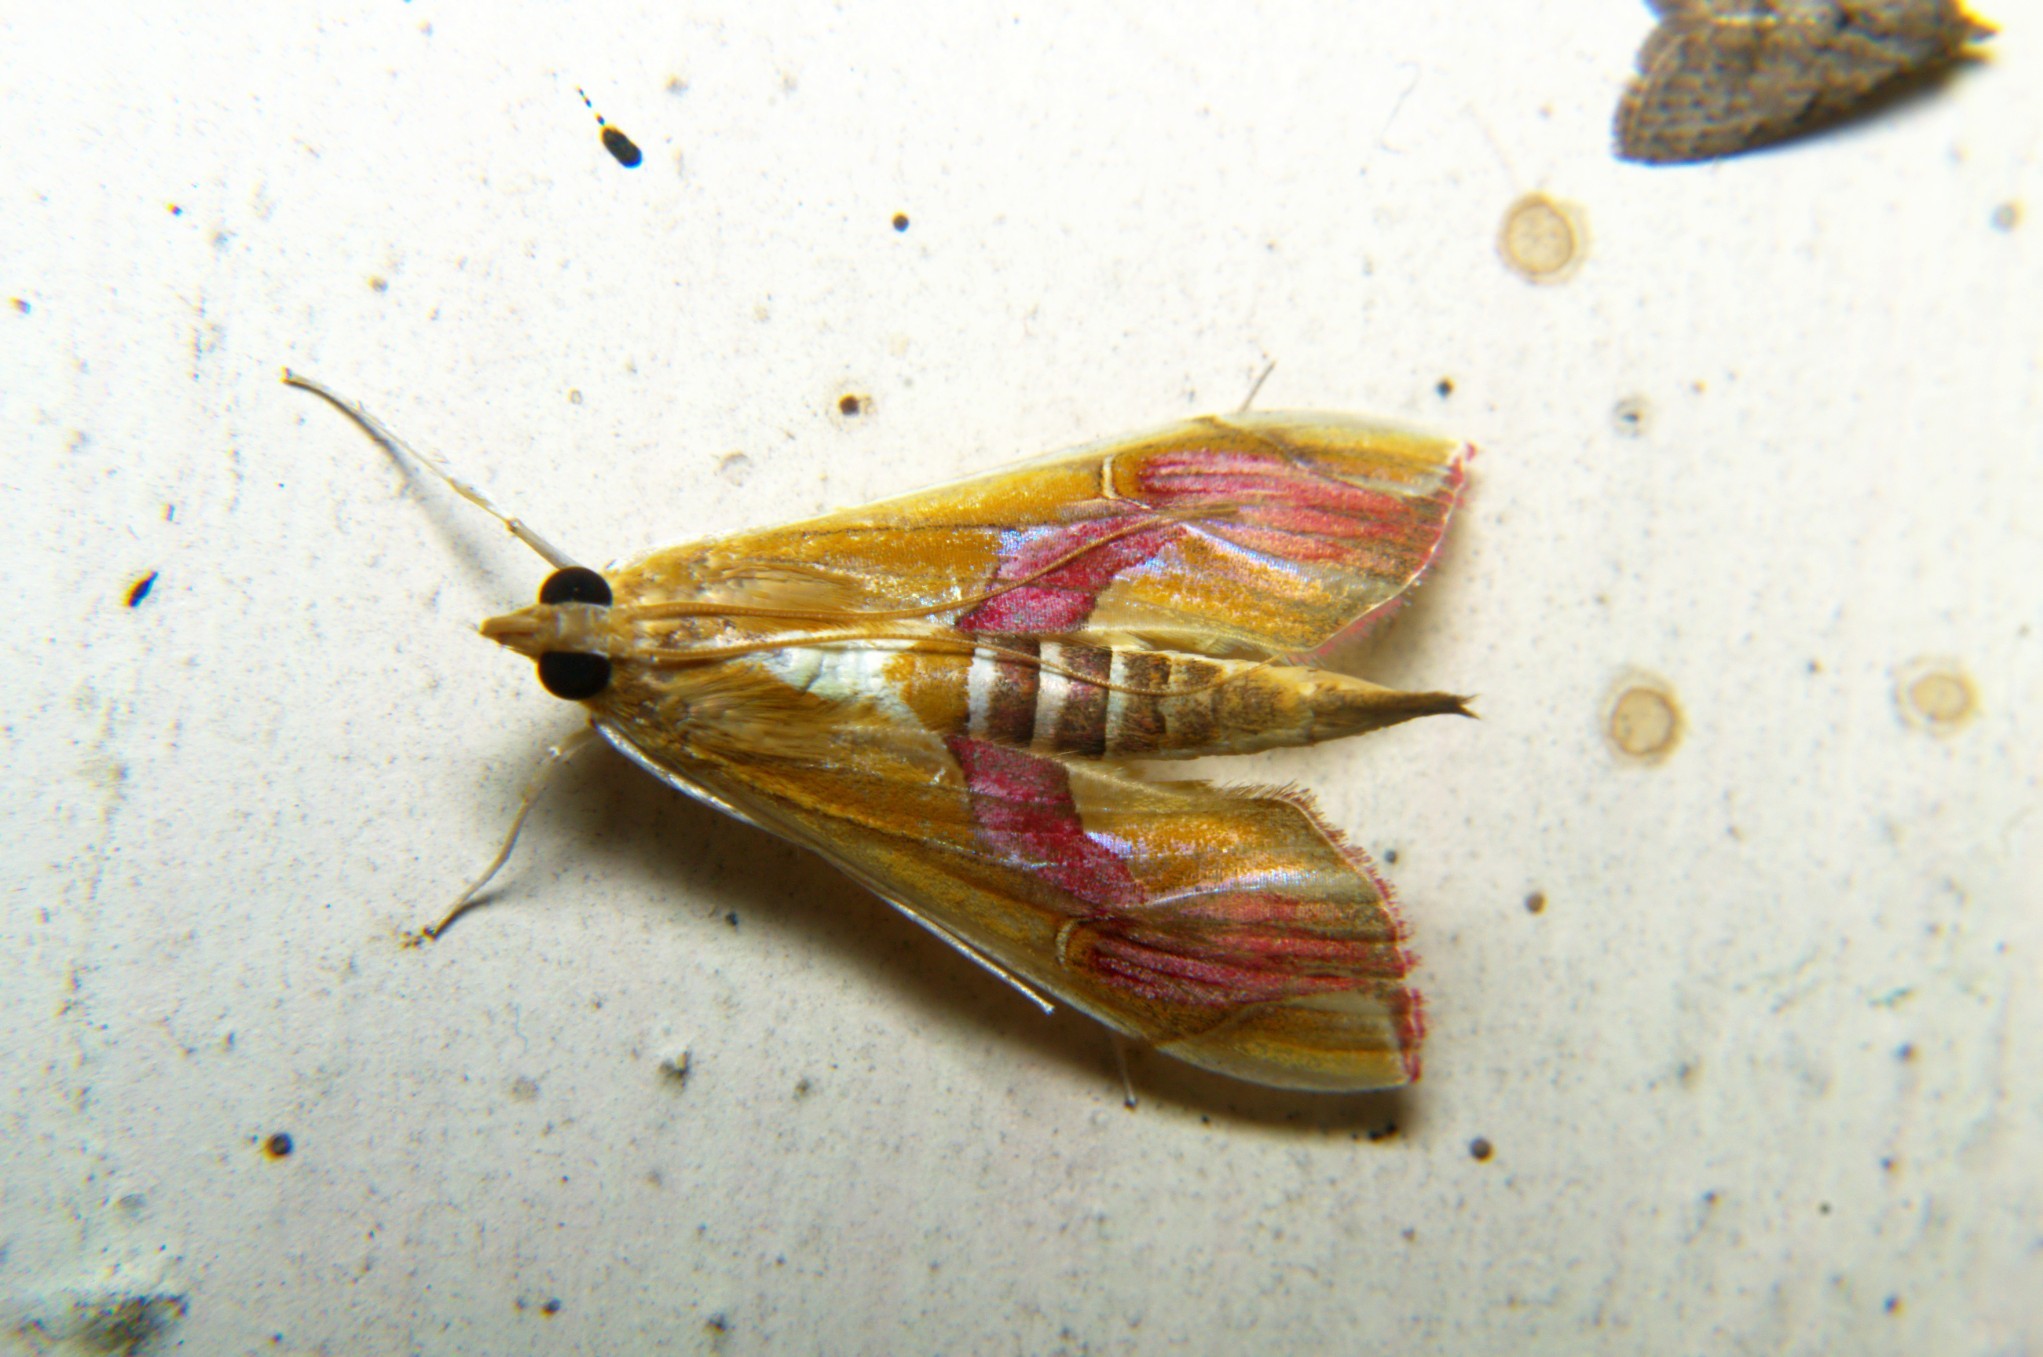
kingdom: Animalia
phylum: Arthropoda
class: Insecta
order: Lepidoptera
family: Crambidae
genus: Agathodes
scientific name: Agathodes ostentalis
